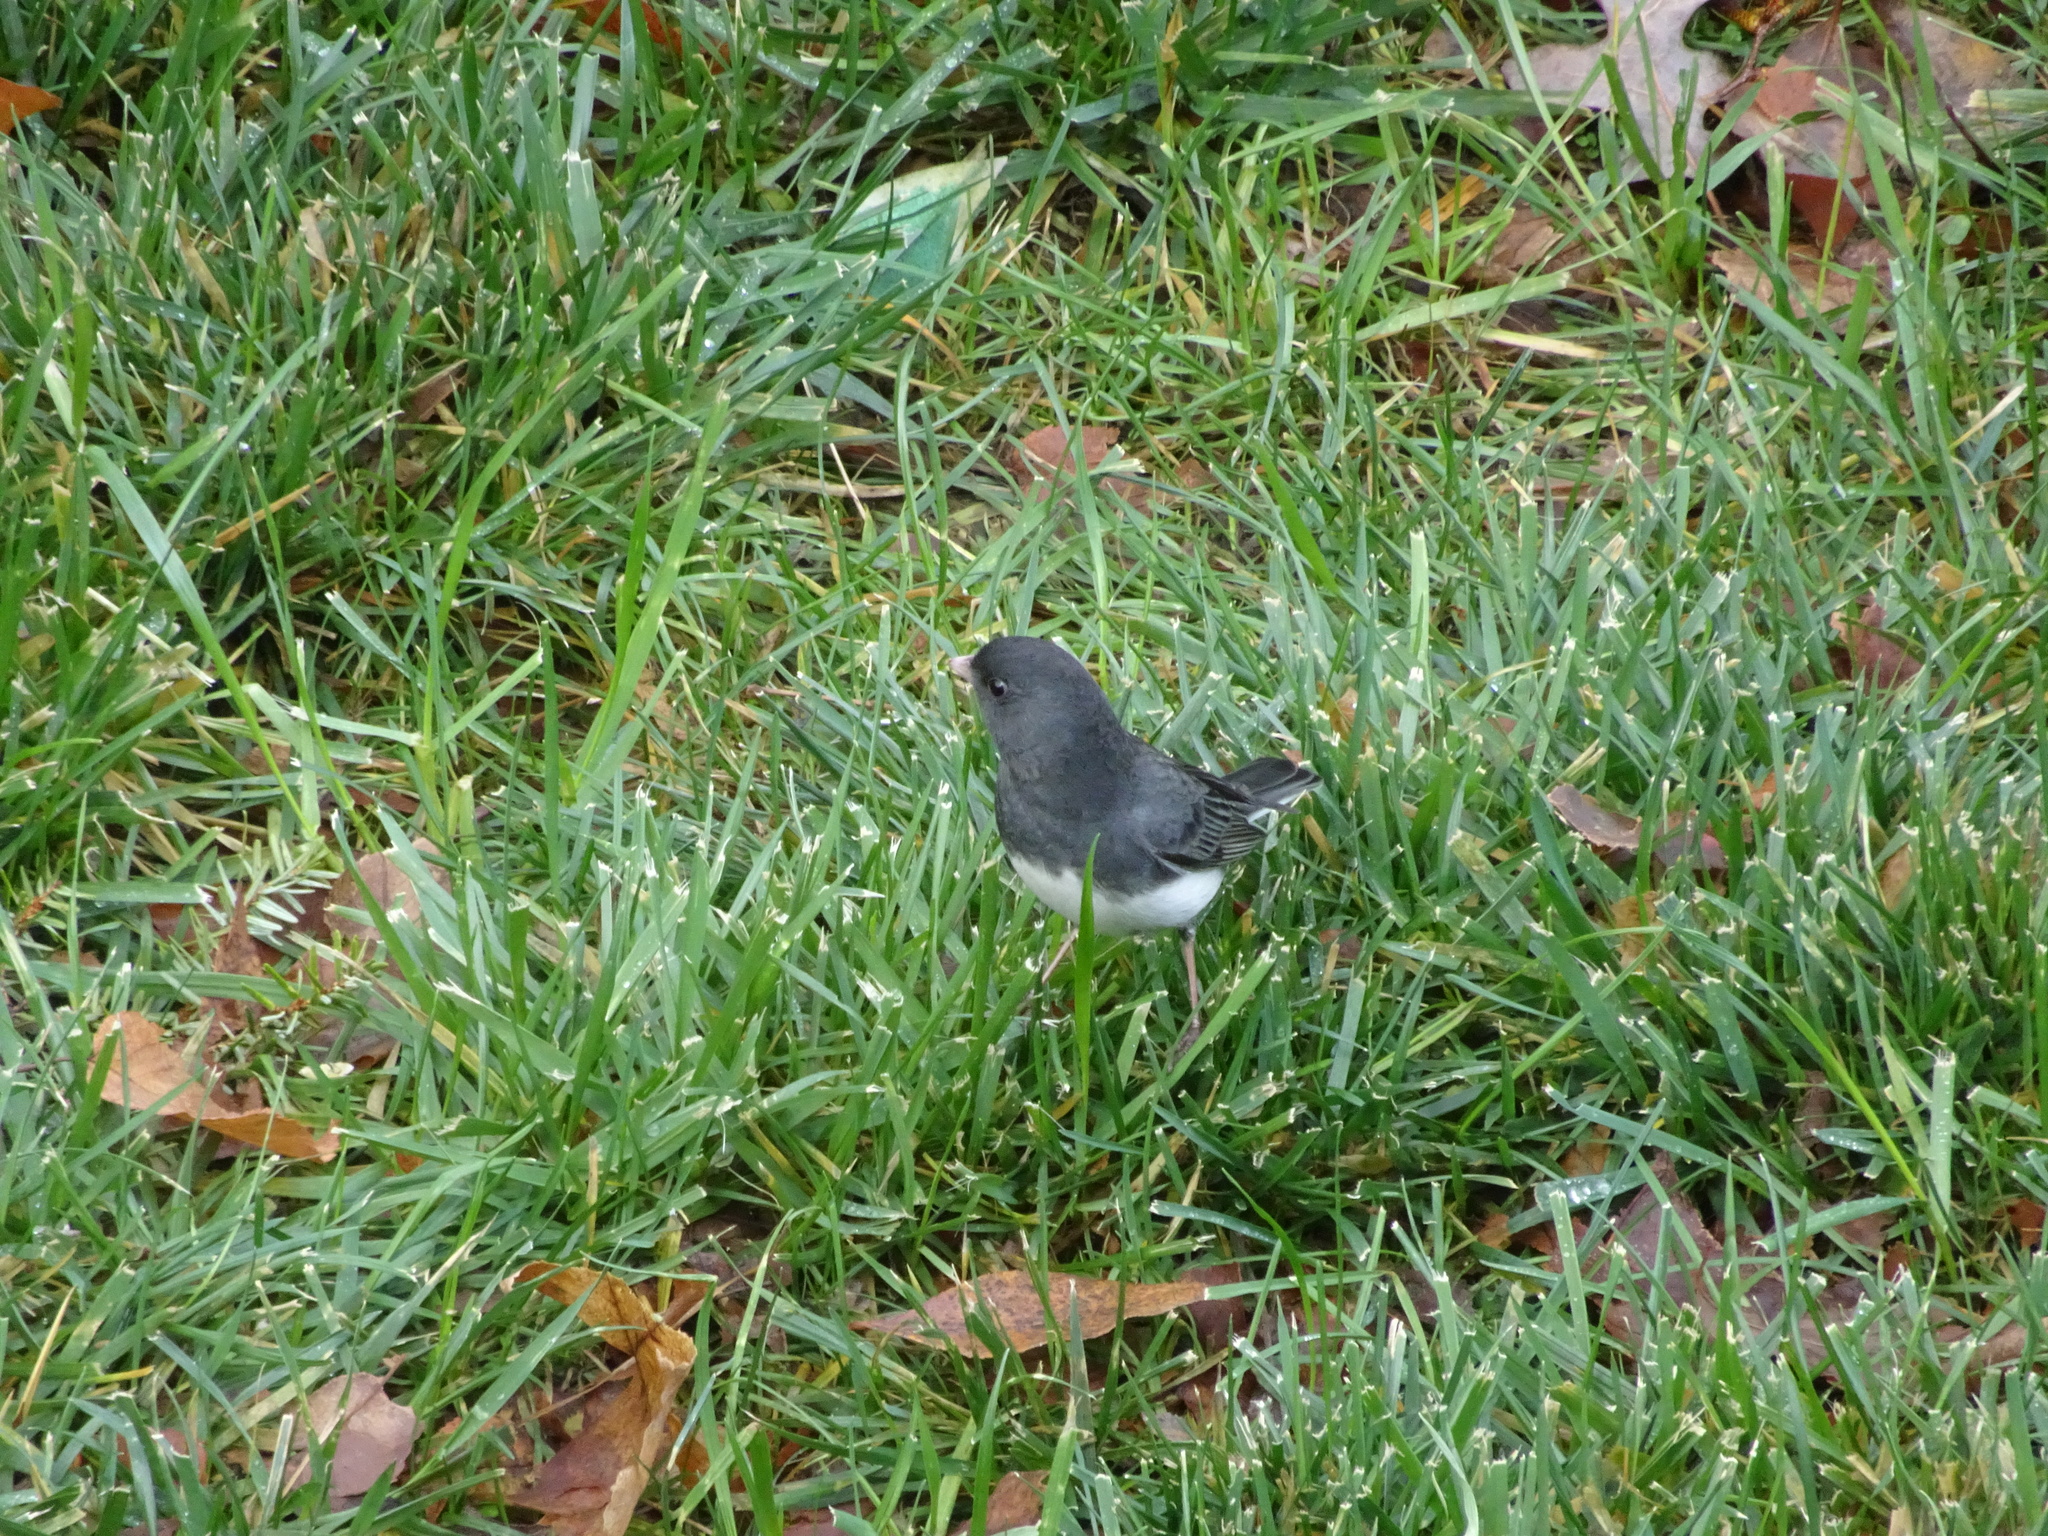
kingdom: Animalia
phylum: Chordata
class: Aves
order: Passeriformes
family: Passerellidae
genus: Junco
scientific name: Junco hyemalis
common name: Dark-eyed junco
